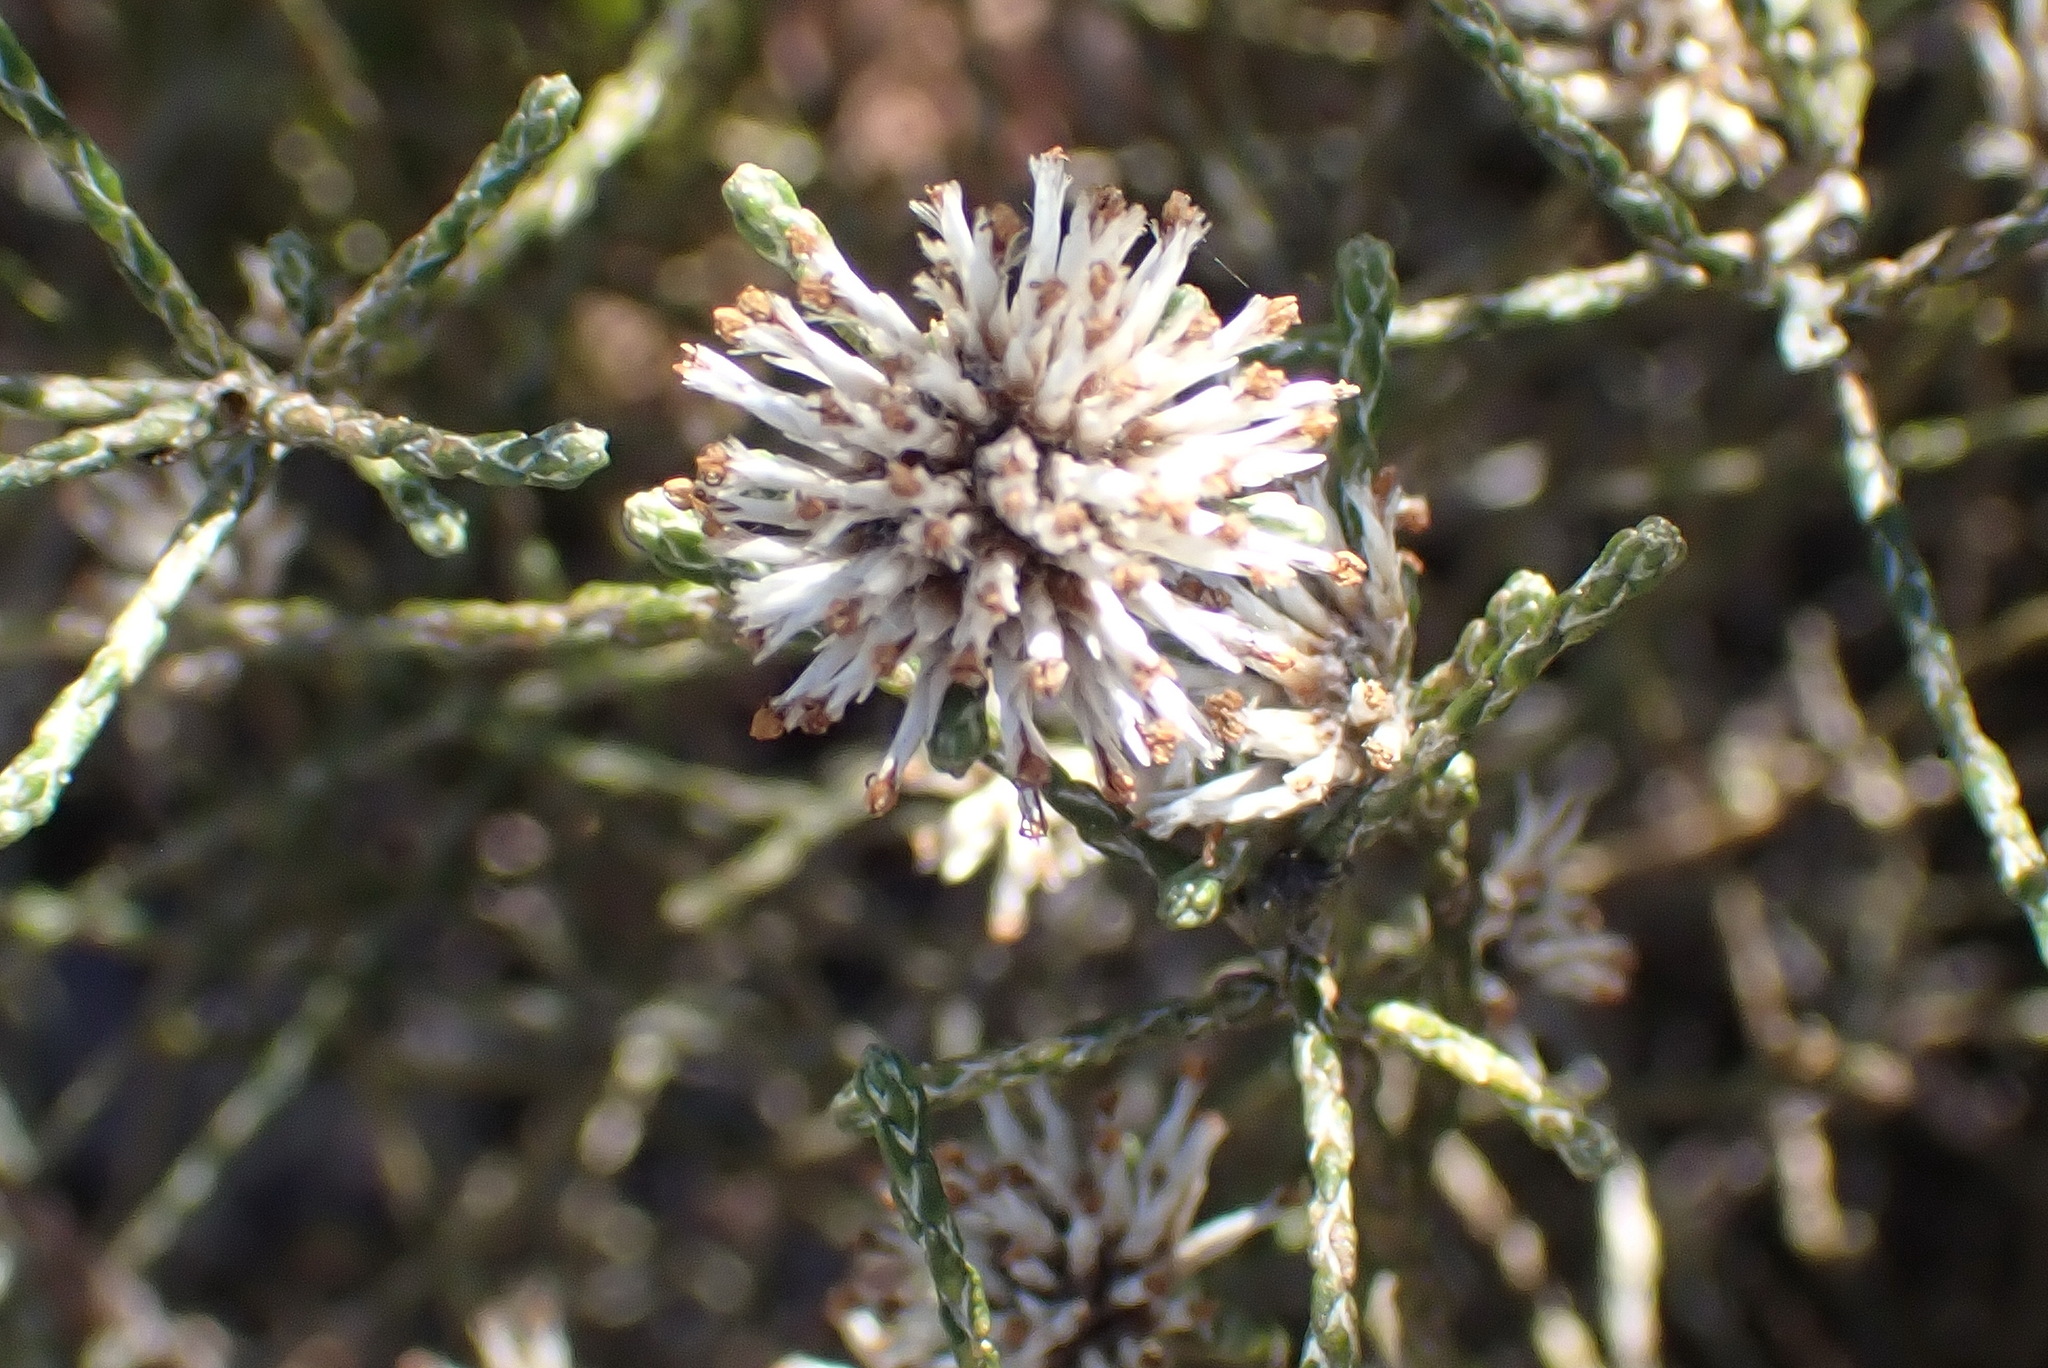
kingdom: Plantae
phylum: Tracheophyta
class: Magnoliopsida
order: Asterales
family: Asteraceae
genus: Stoebe
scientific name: Stoebe microphylla
